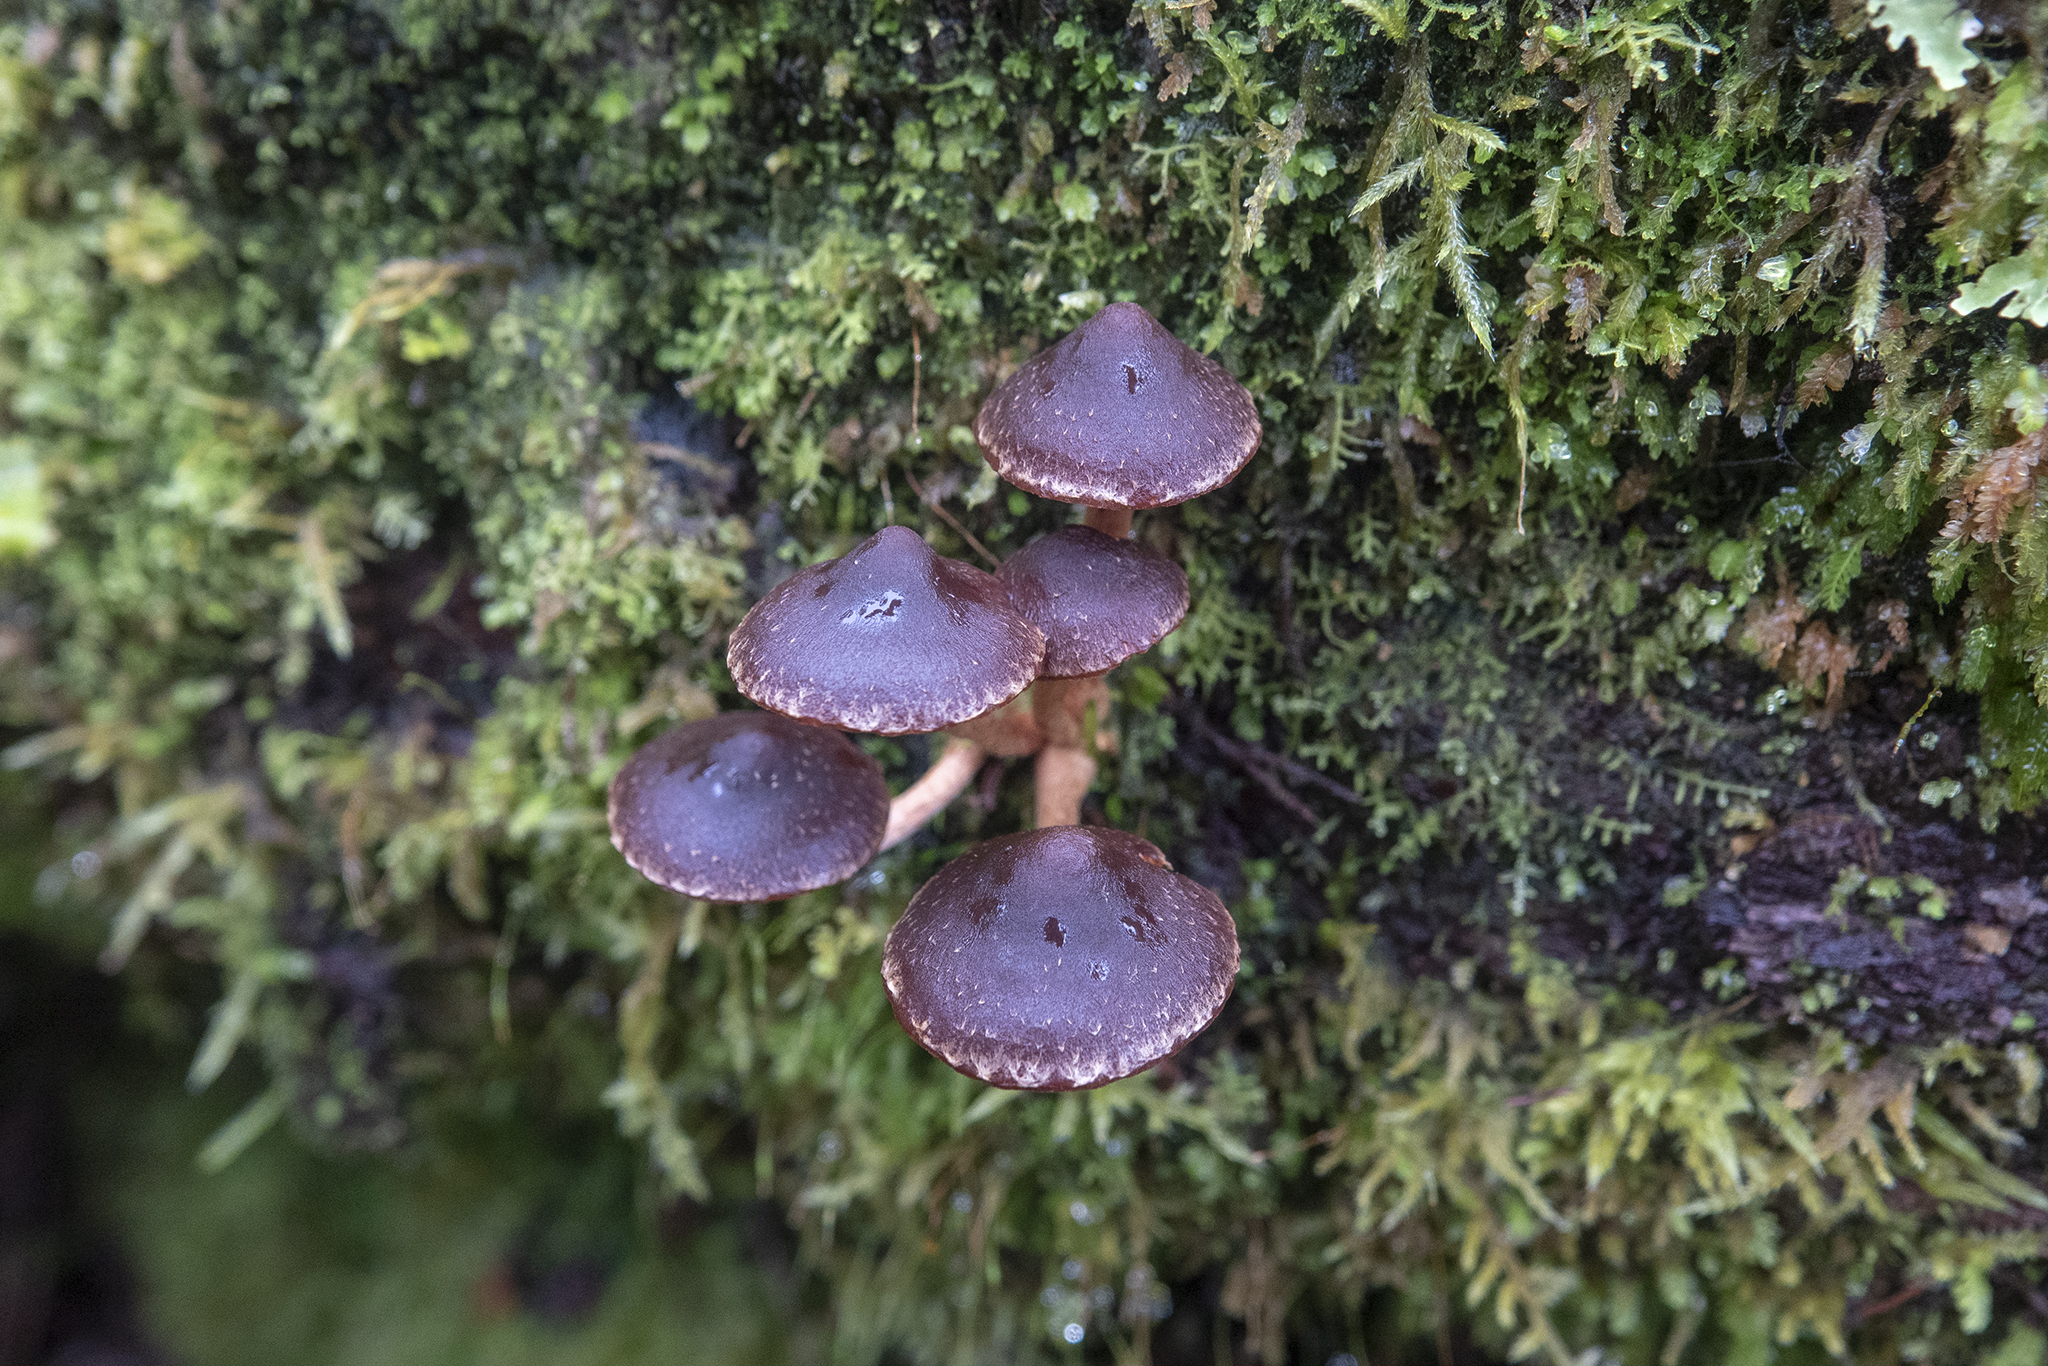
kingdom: Fungi
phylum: Basidiomycota
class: Agaricomycetes
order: Agaricales
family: Strophariaceae
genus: Hypholoma
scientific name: Hypholoma brunneum
